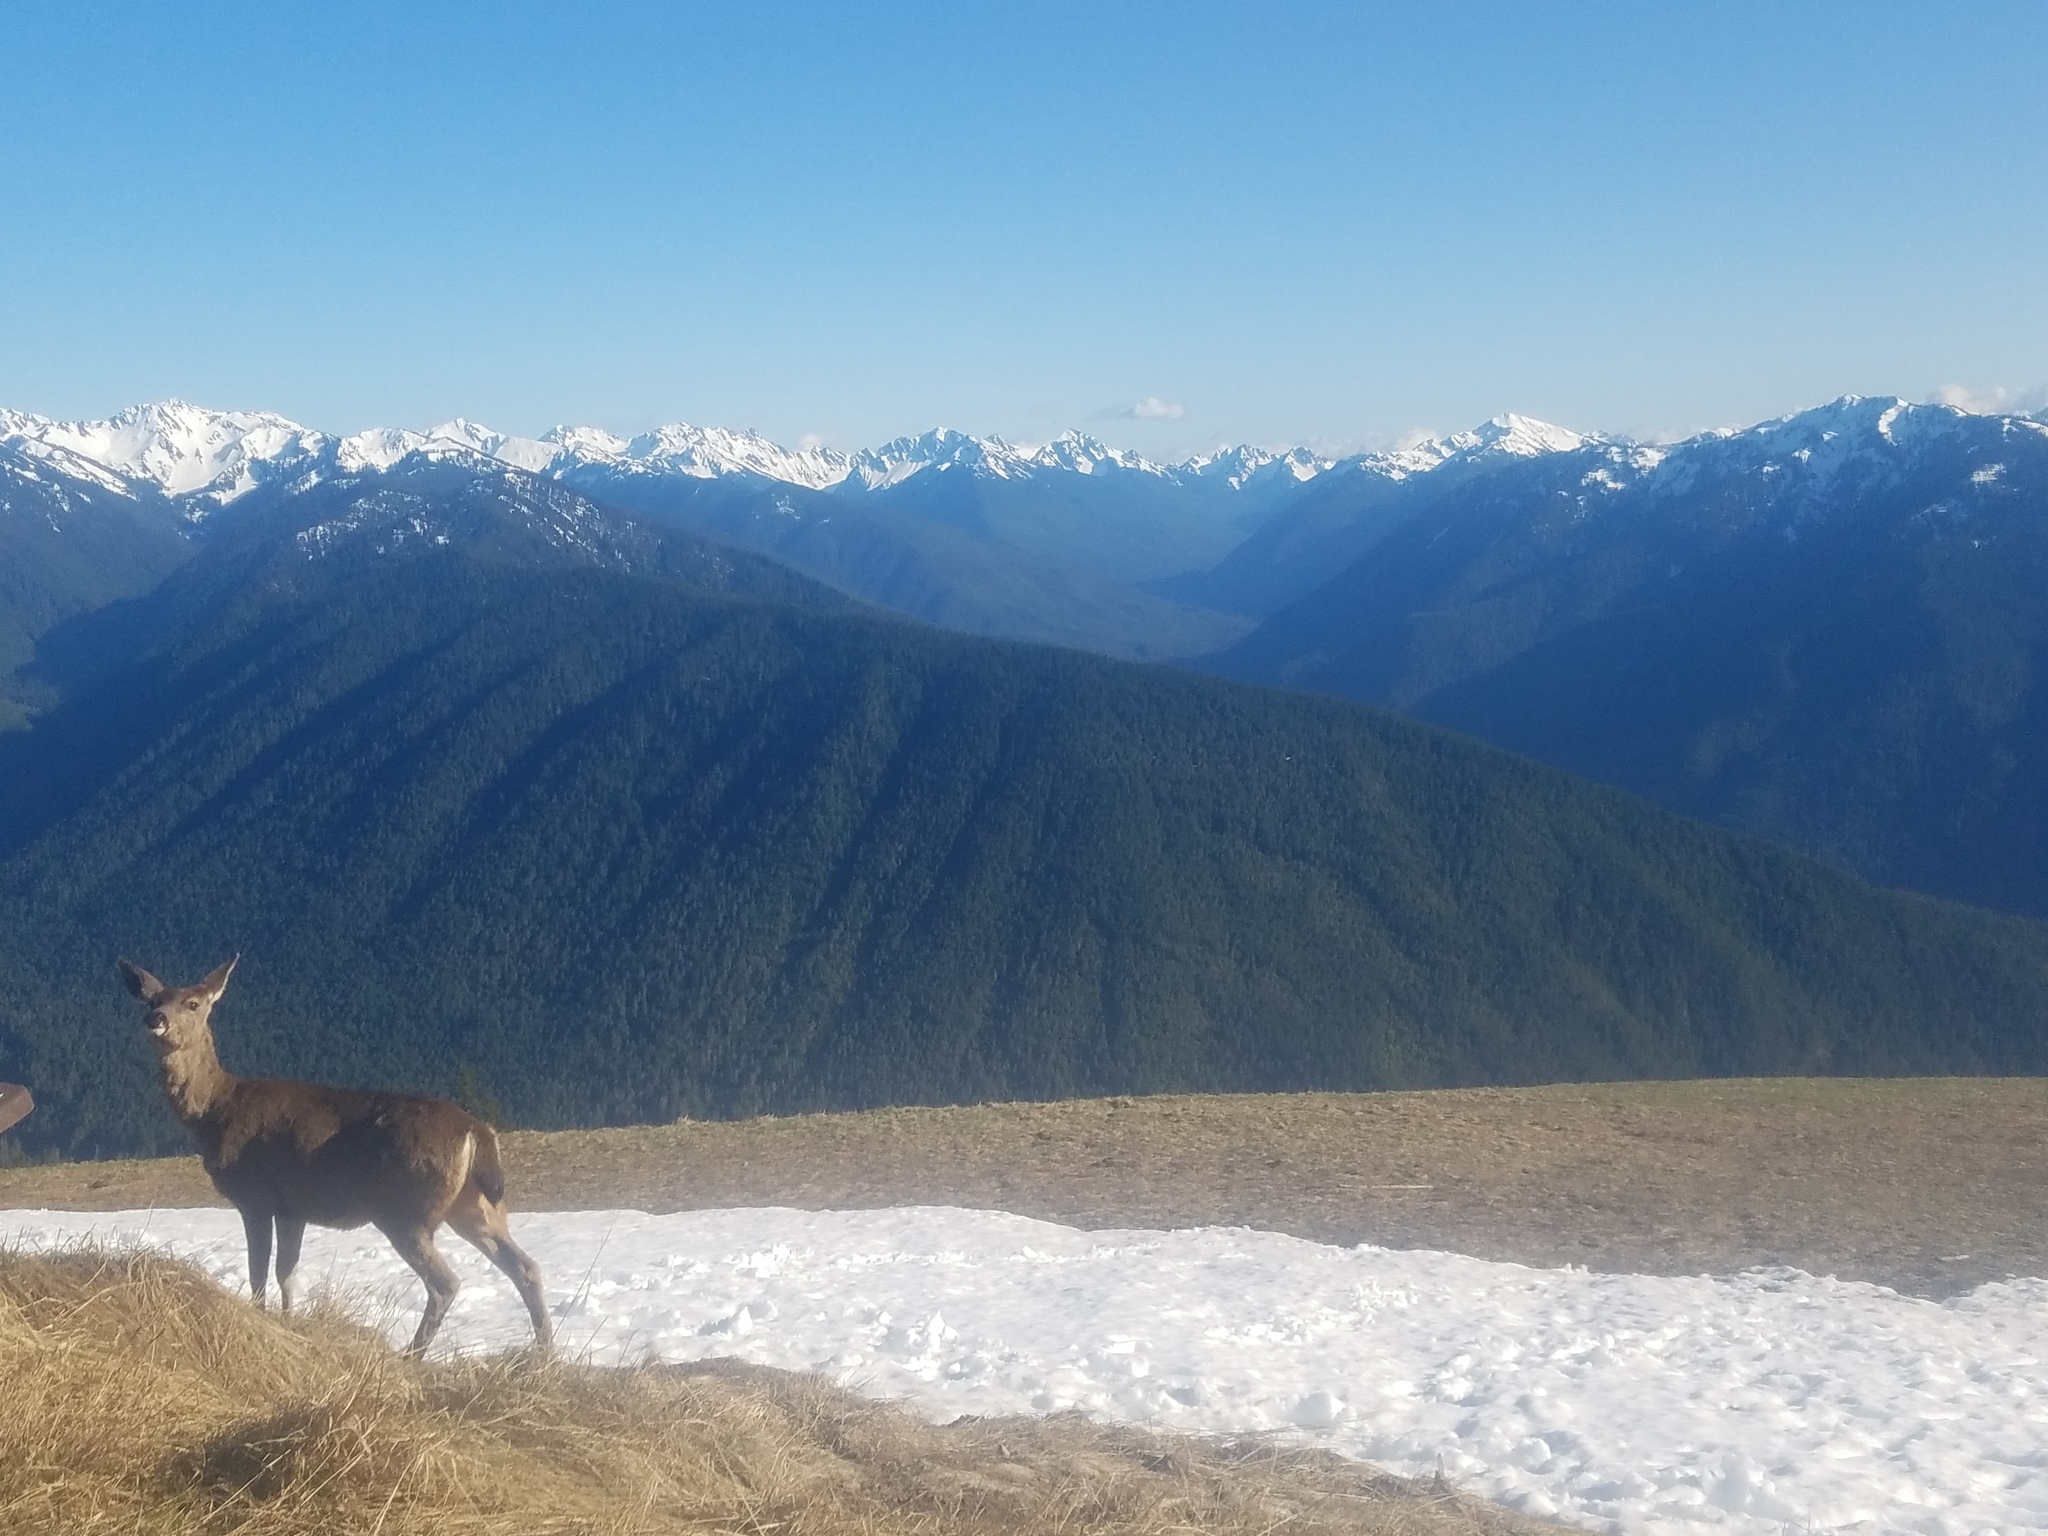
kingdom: Animalia
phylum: Chordata
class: Mammalia
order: Artiodactyla
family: Cervidae
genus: Odocoileus
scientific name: Odocoileus hemionus
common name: Mule deer
